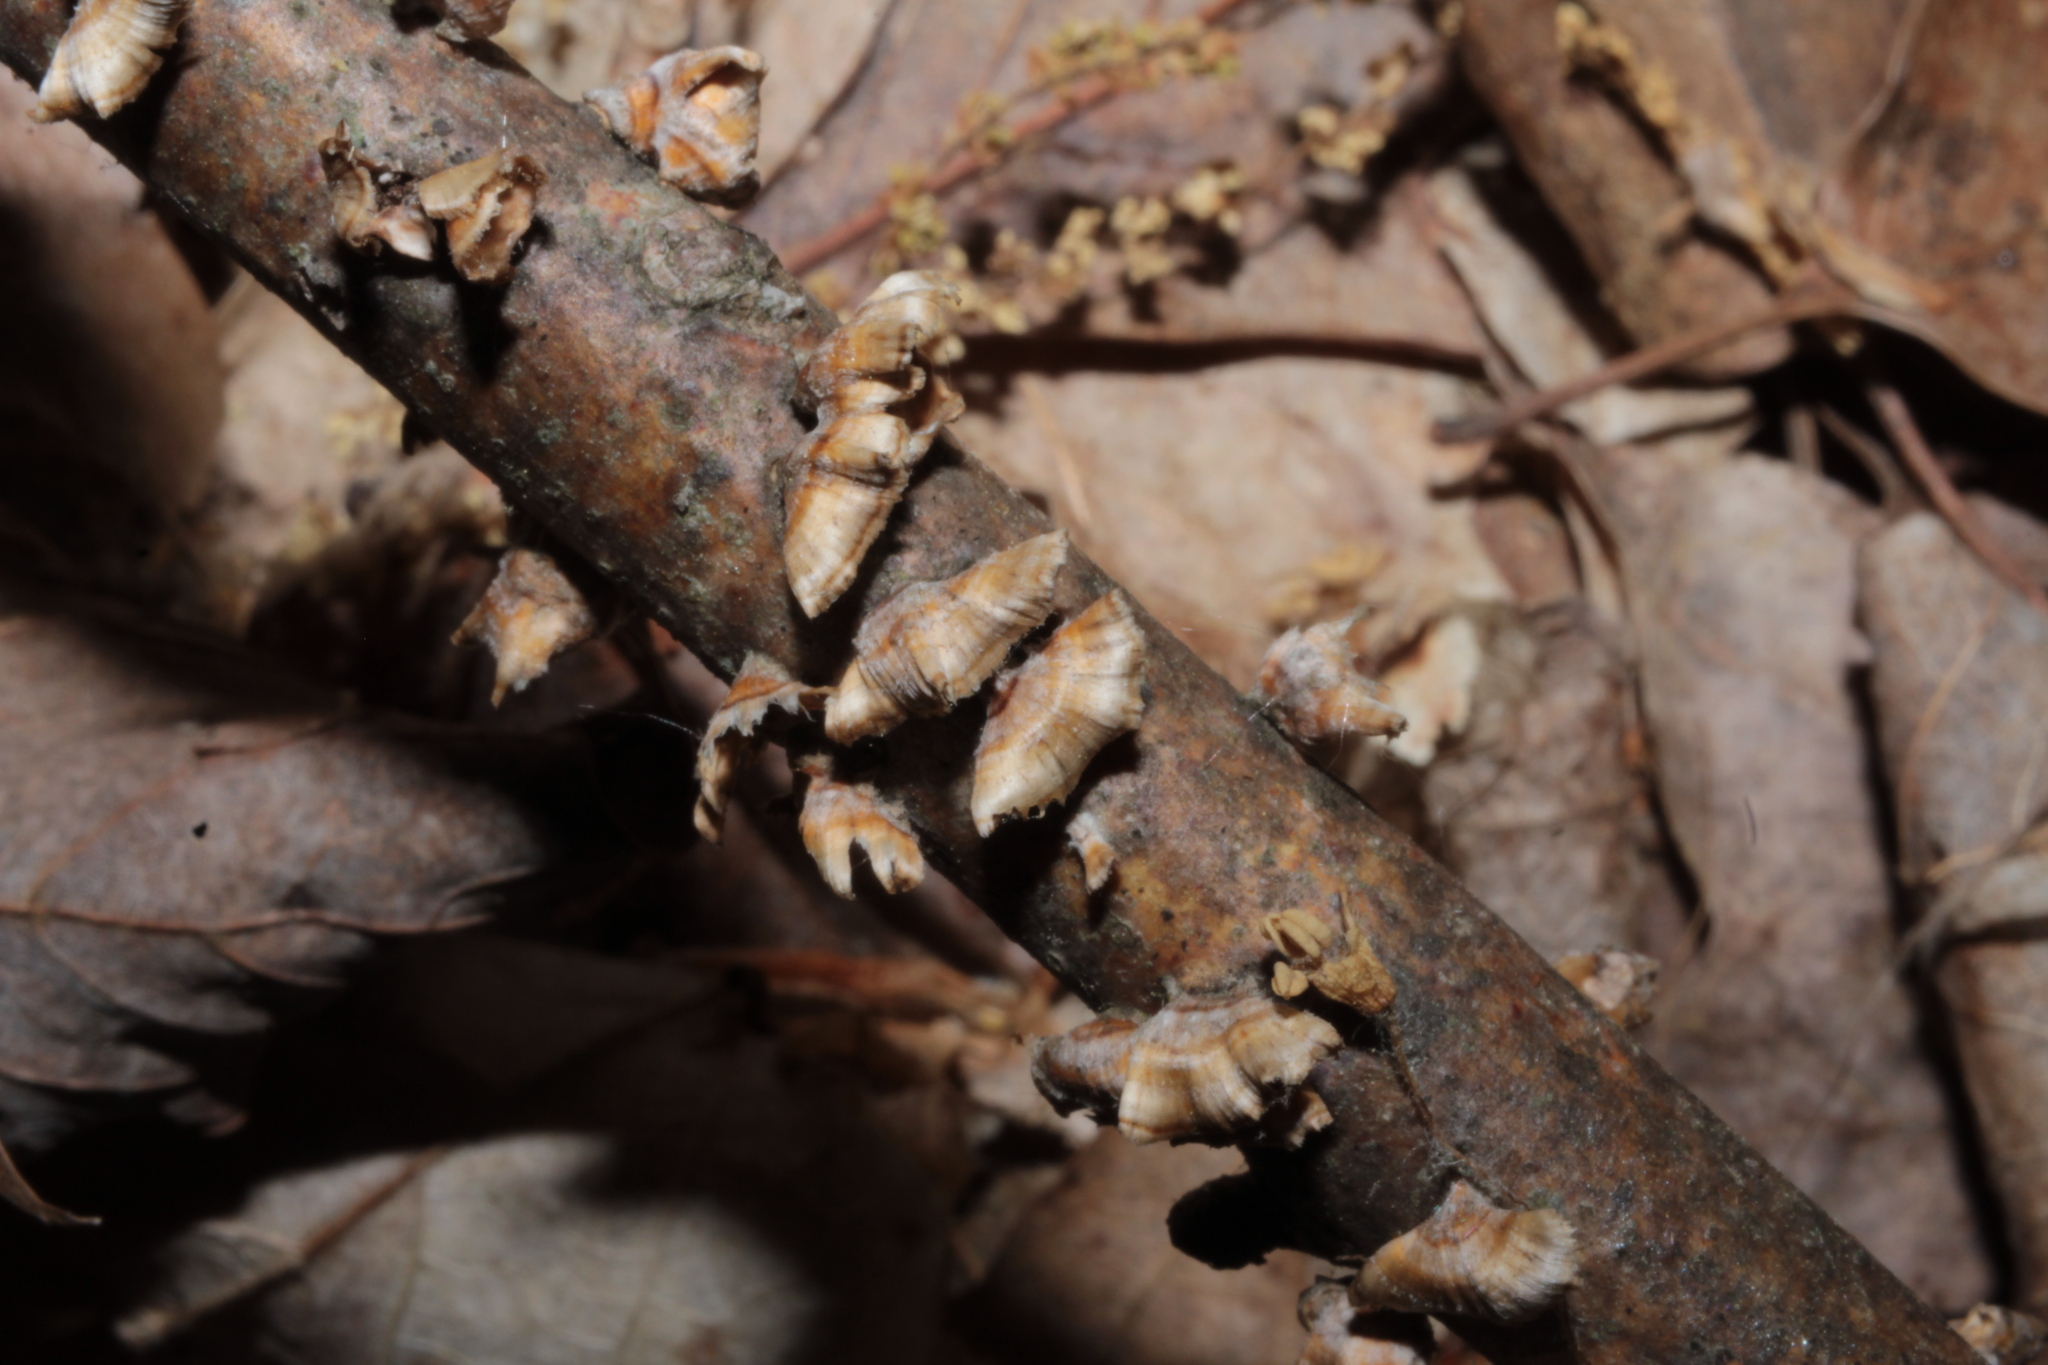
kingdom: Fungi
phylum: Basidiomycota
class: Agaricomycetes
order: Russulales
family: Stereaceae
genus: Stereum
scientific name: Stereum striatum
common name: Silky parchment
